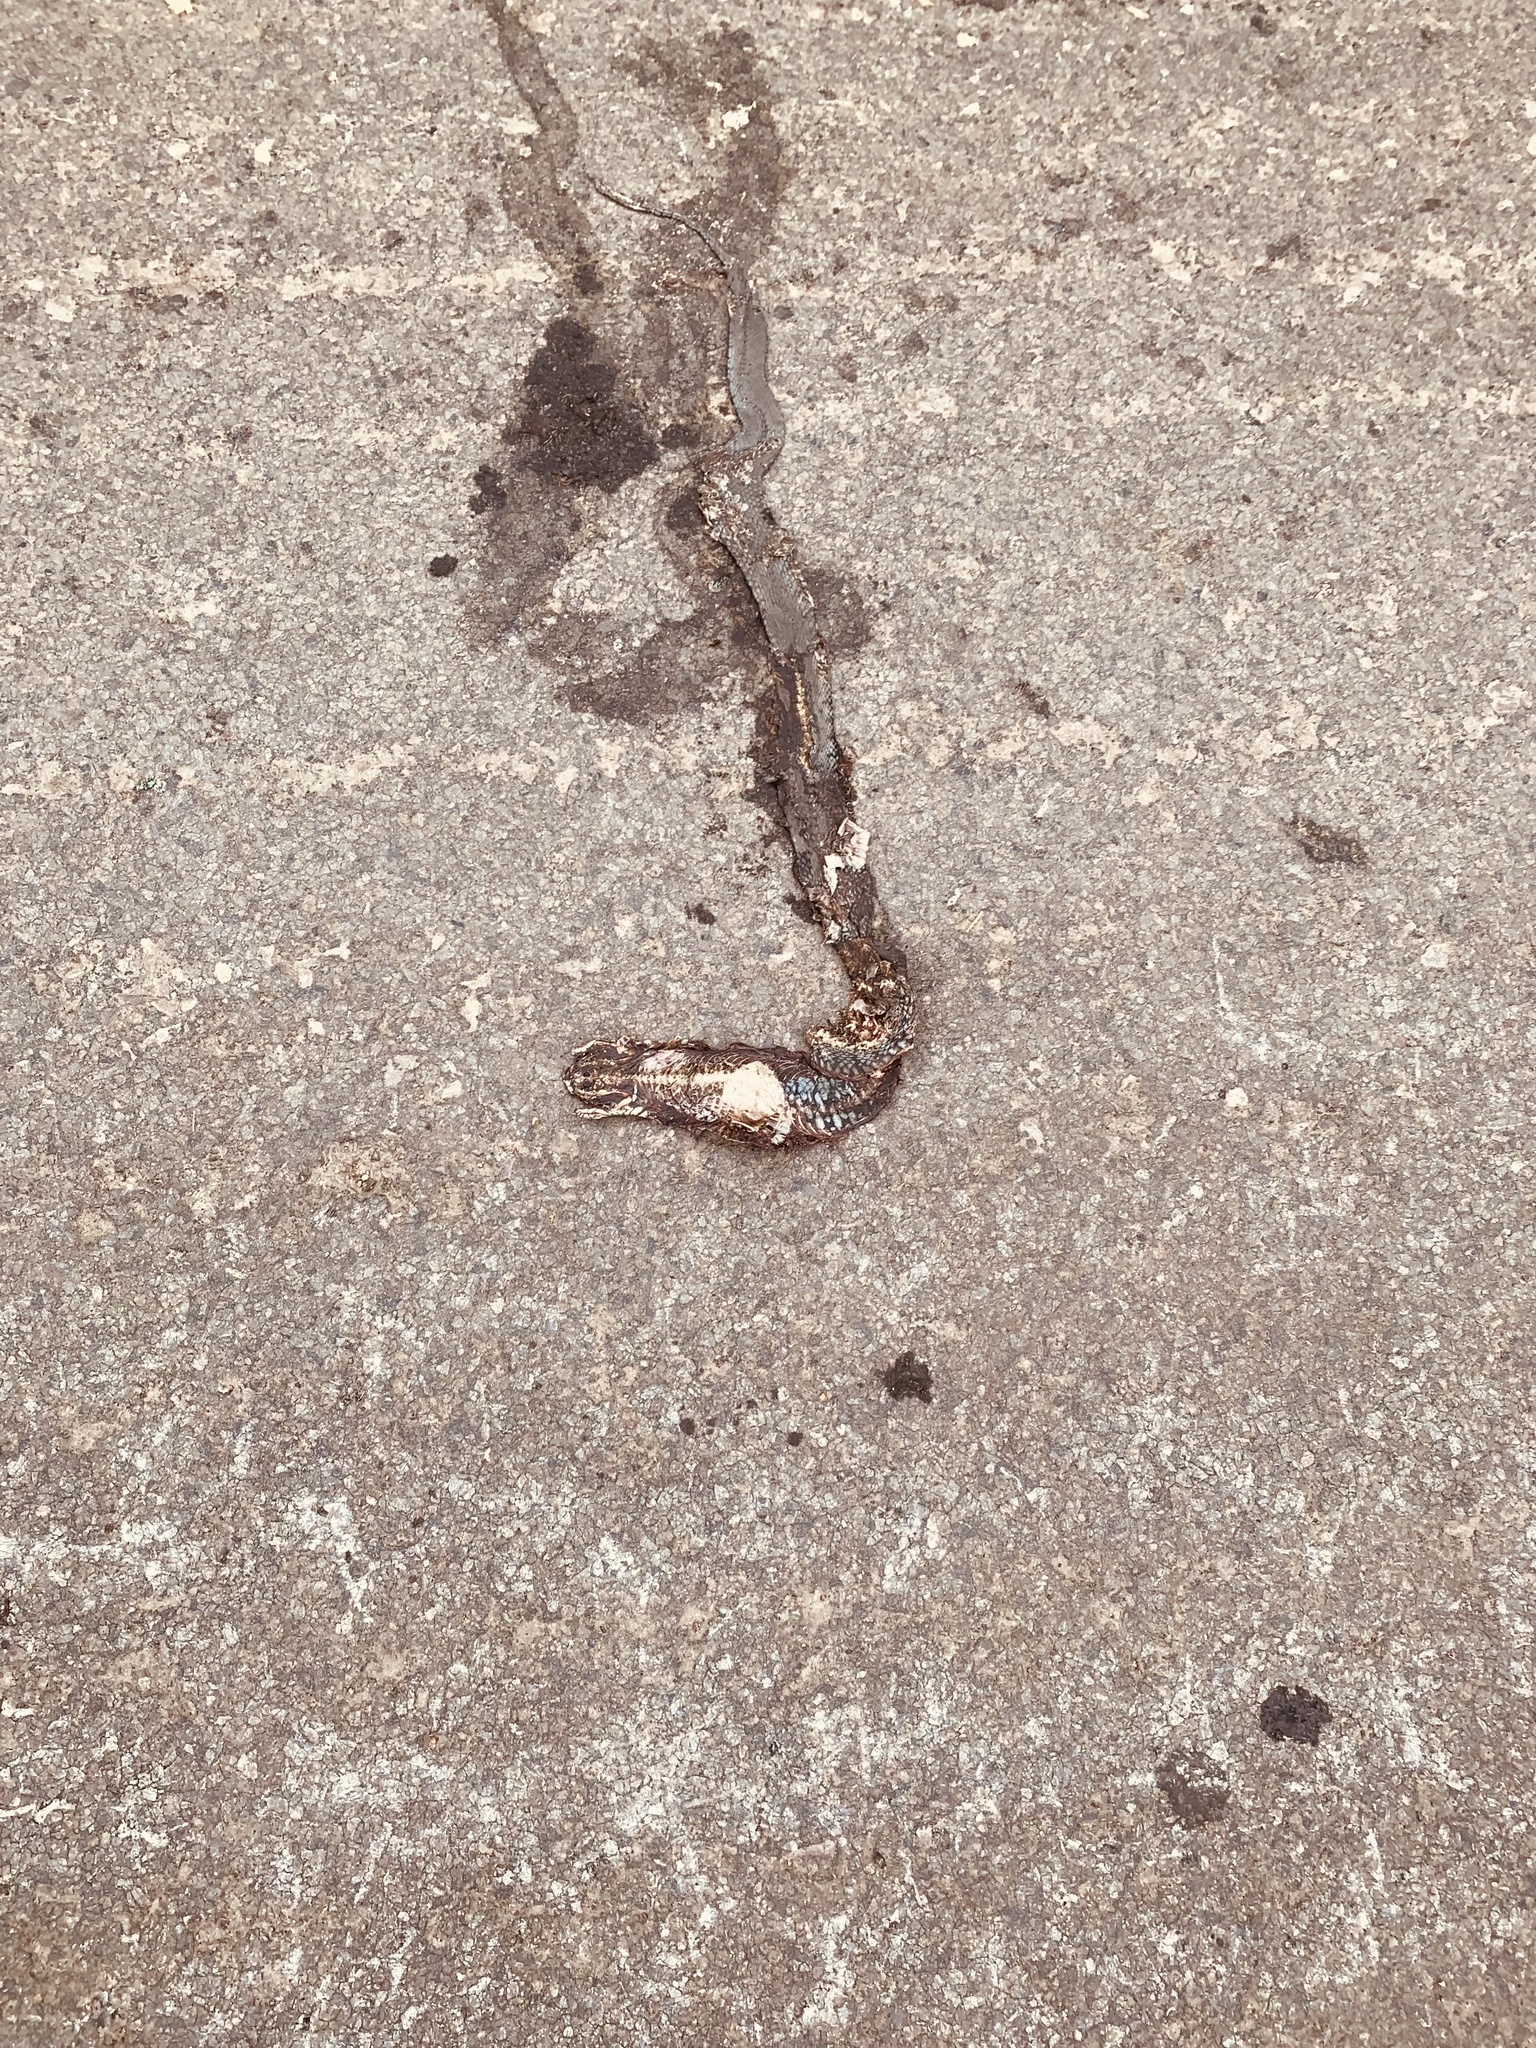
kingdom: Animalia
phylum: Chordata
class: Squamata
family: Colubridae
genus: Natrix
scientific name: Natrix helvetica
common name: Banded grass snake
